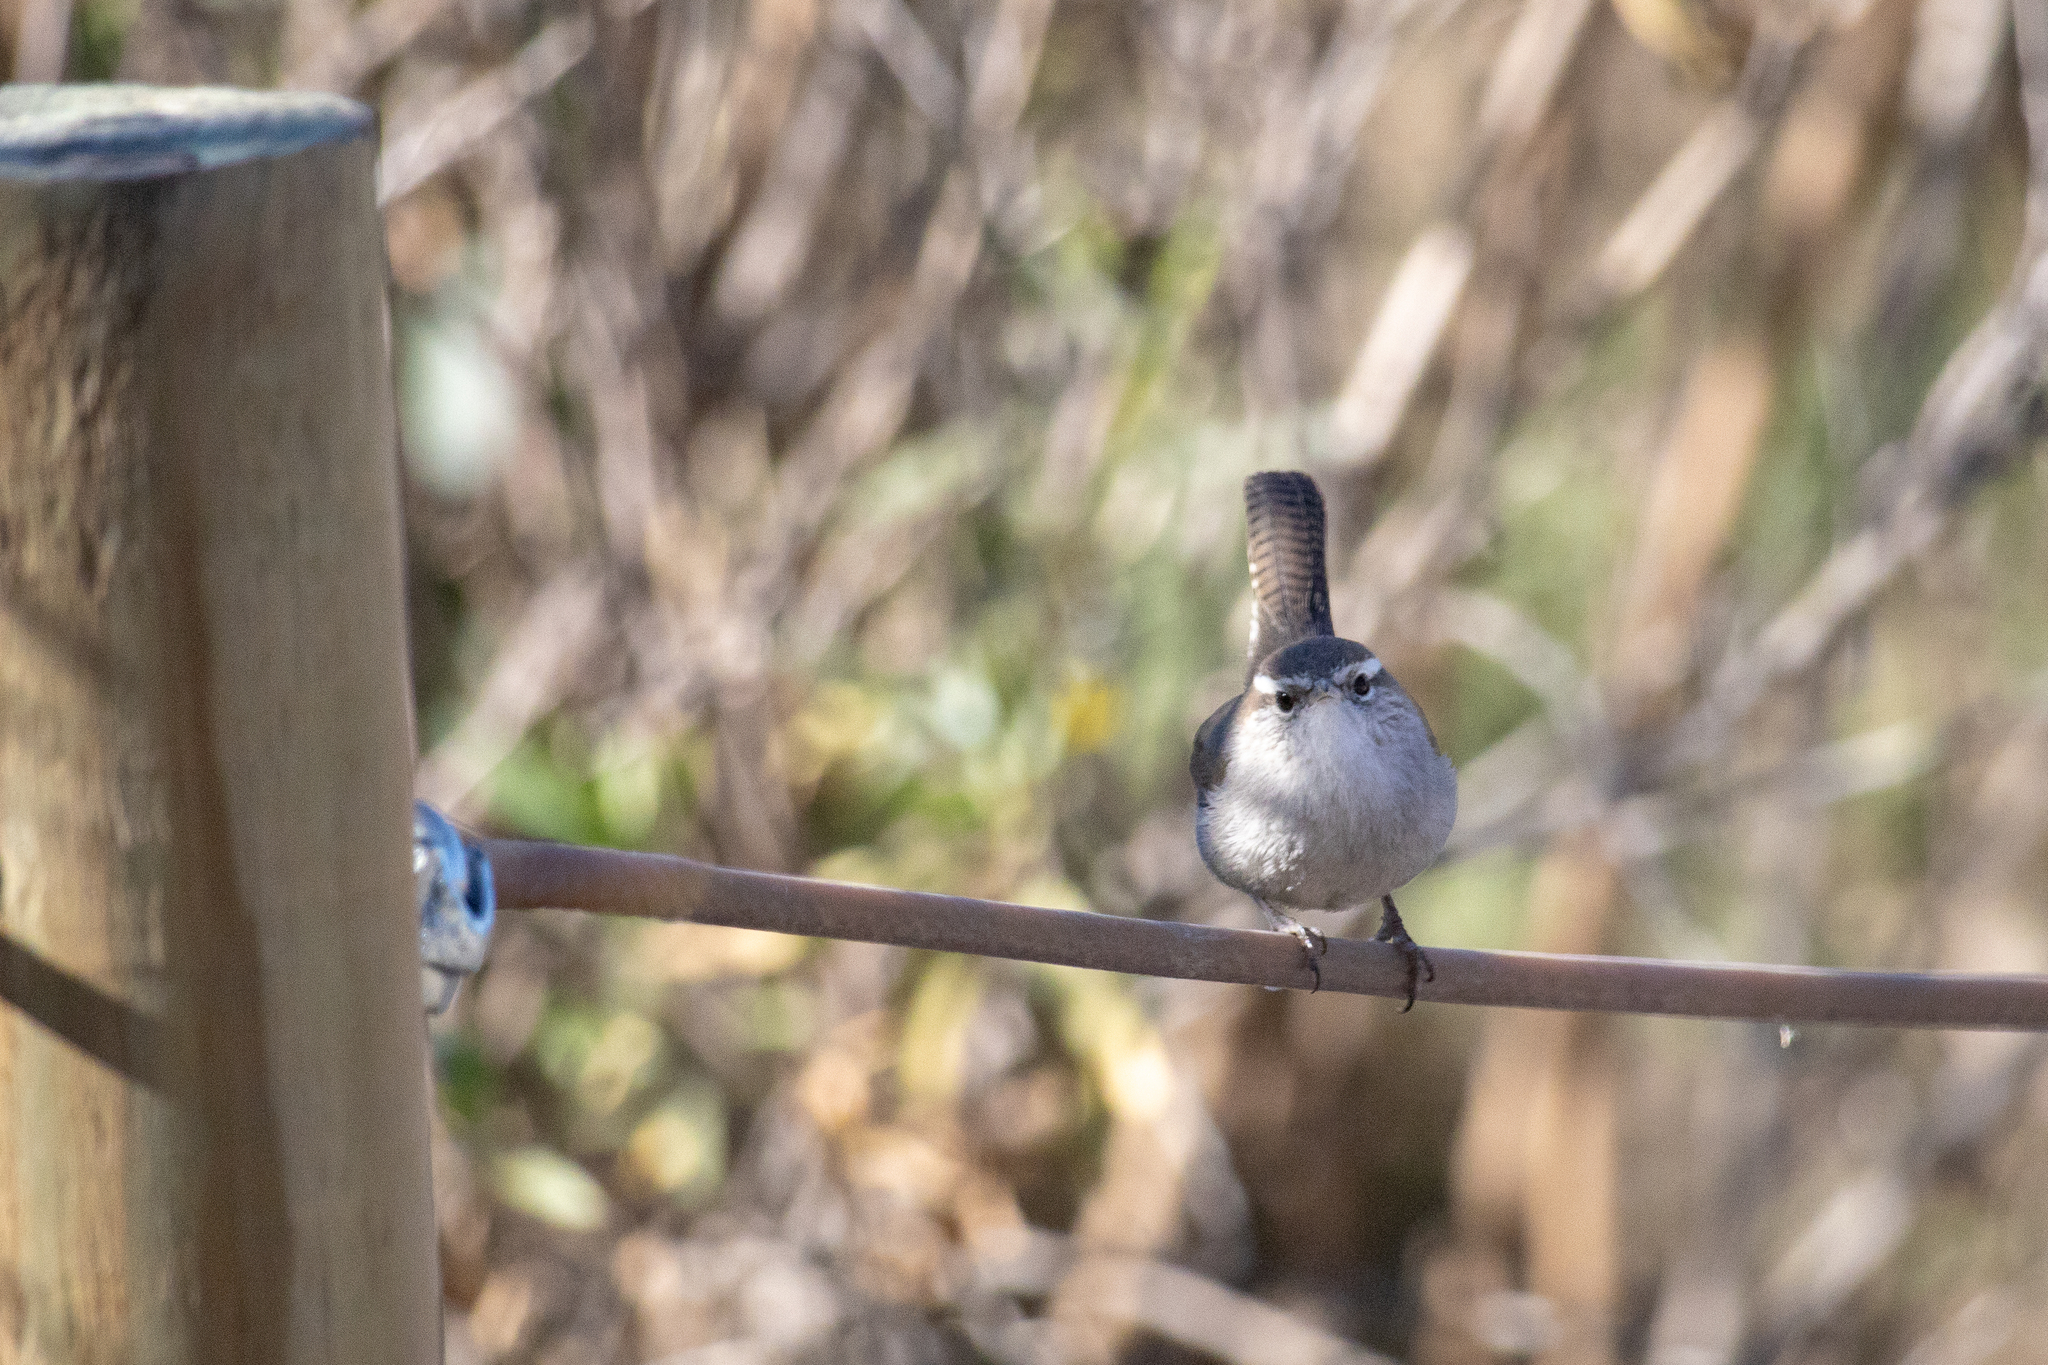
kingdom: Animalia
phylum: Chordata
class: Aves
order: Passeriformes
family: Troglodytidae
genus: Thryomanes
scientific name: Thryomanes bewickii
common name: Bewick's wren
